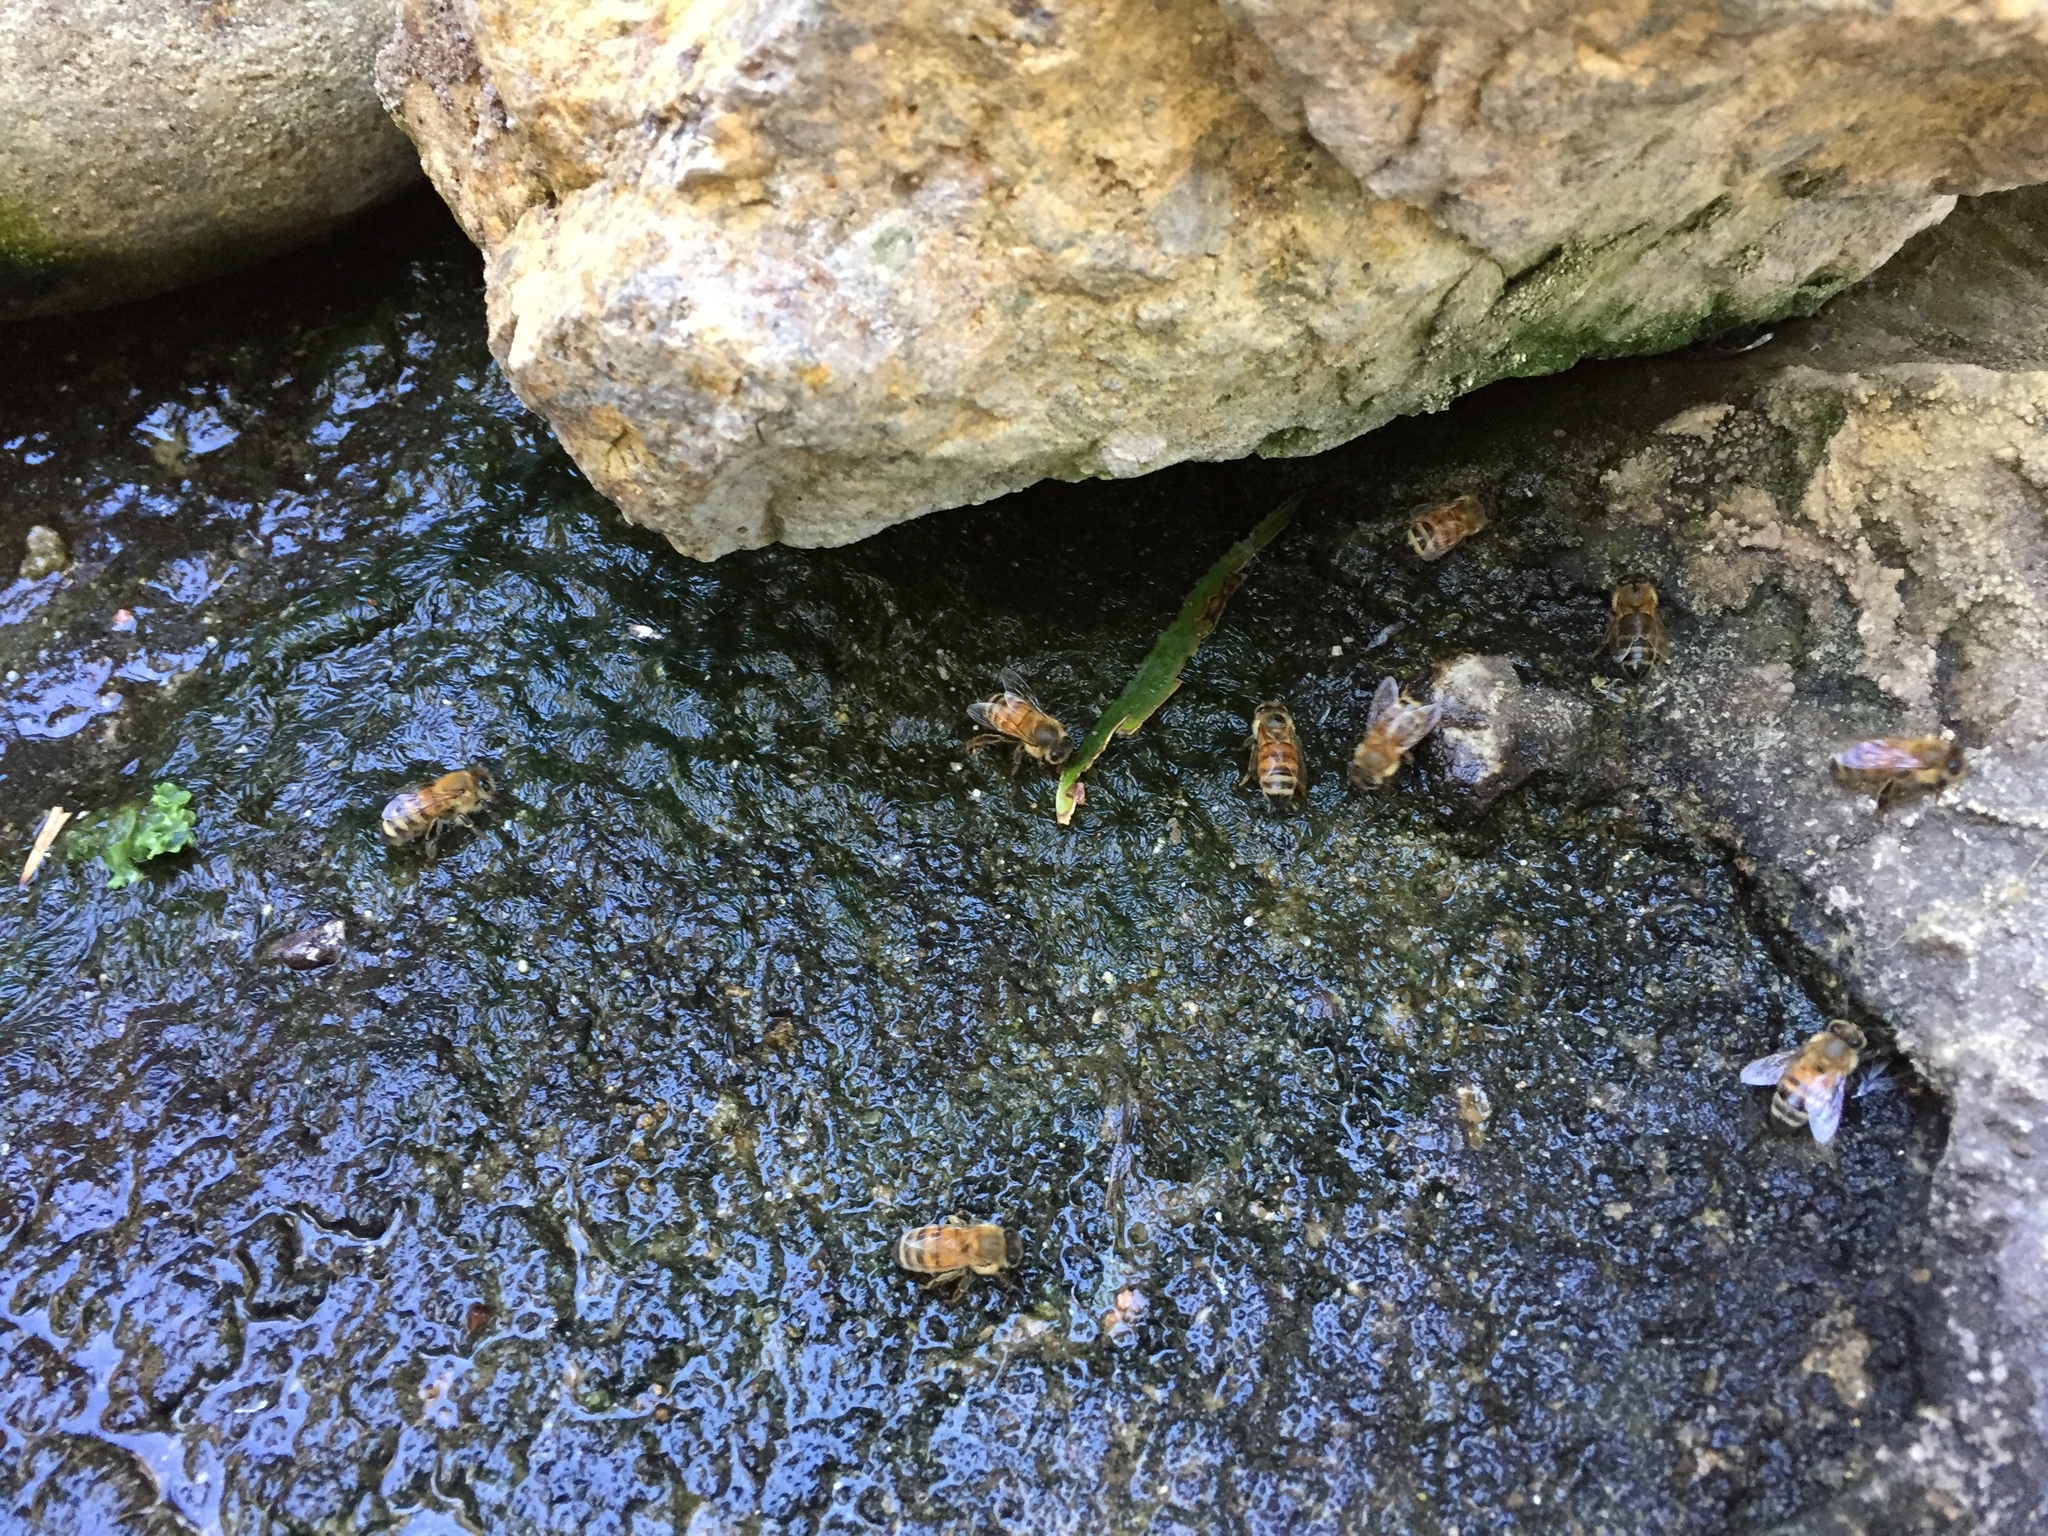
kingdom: Animalia
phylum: Arthropoda
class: Insecta
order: Hymenoptera
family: Apidae
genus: Apis
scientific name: Apis mellifera
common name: Honey bee
